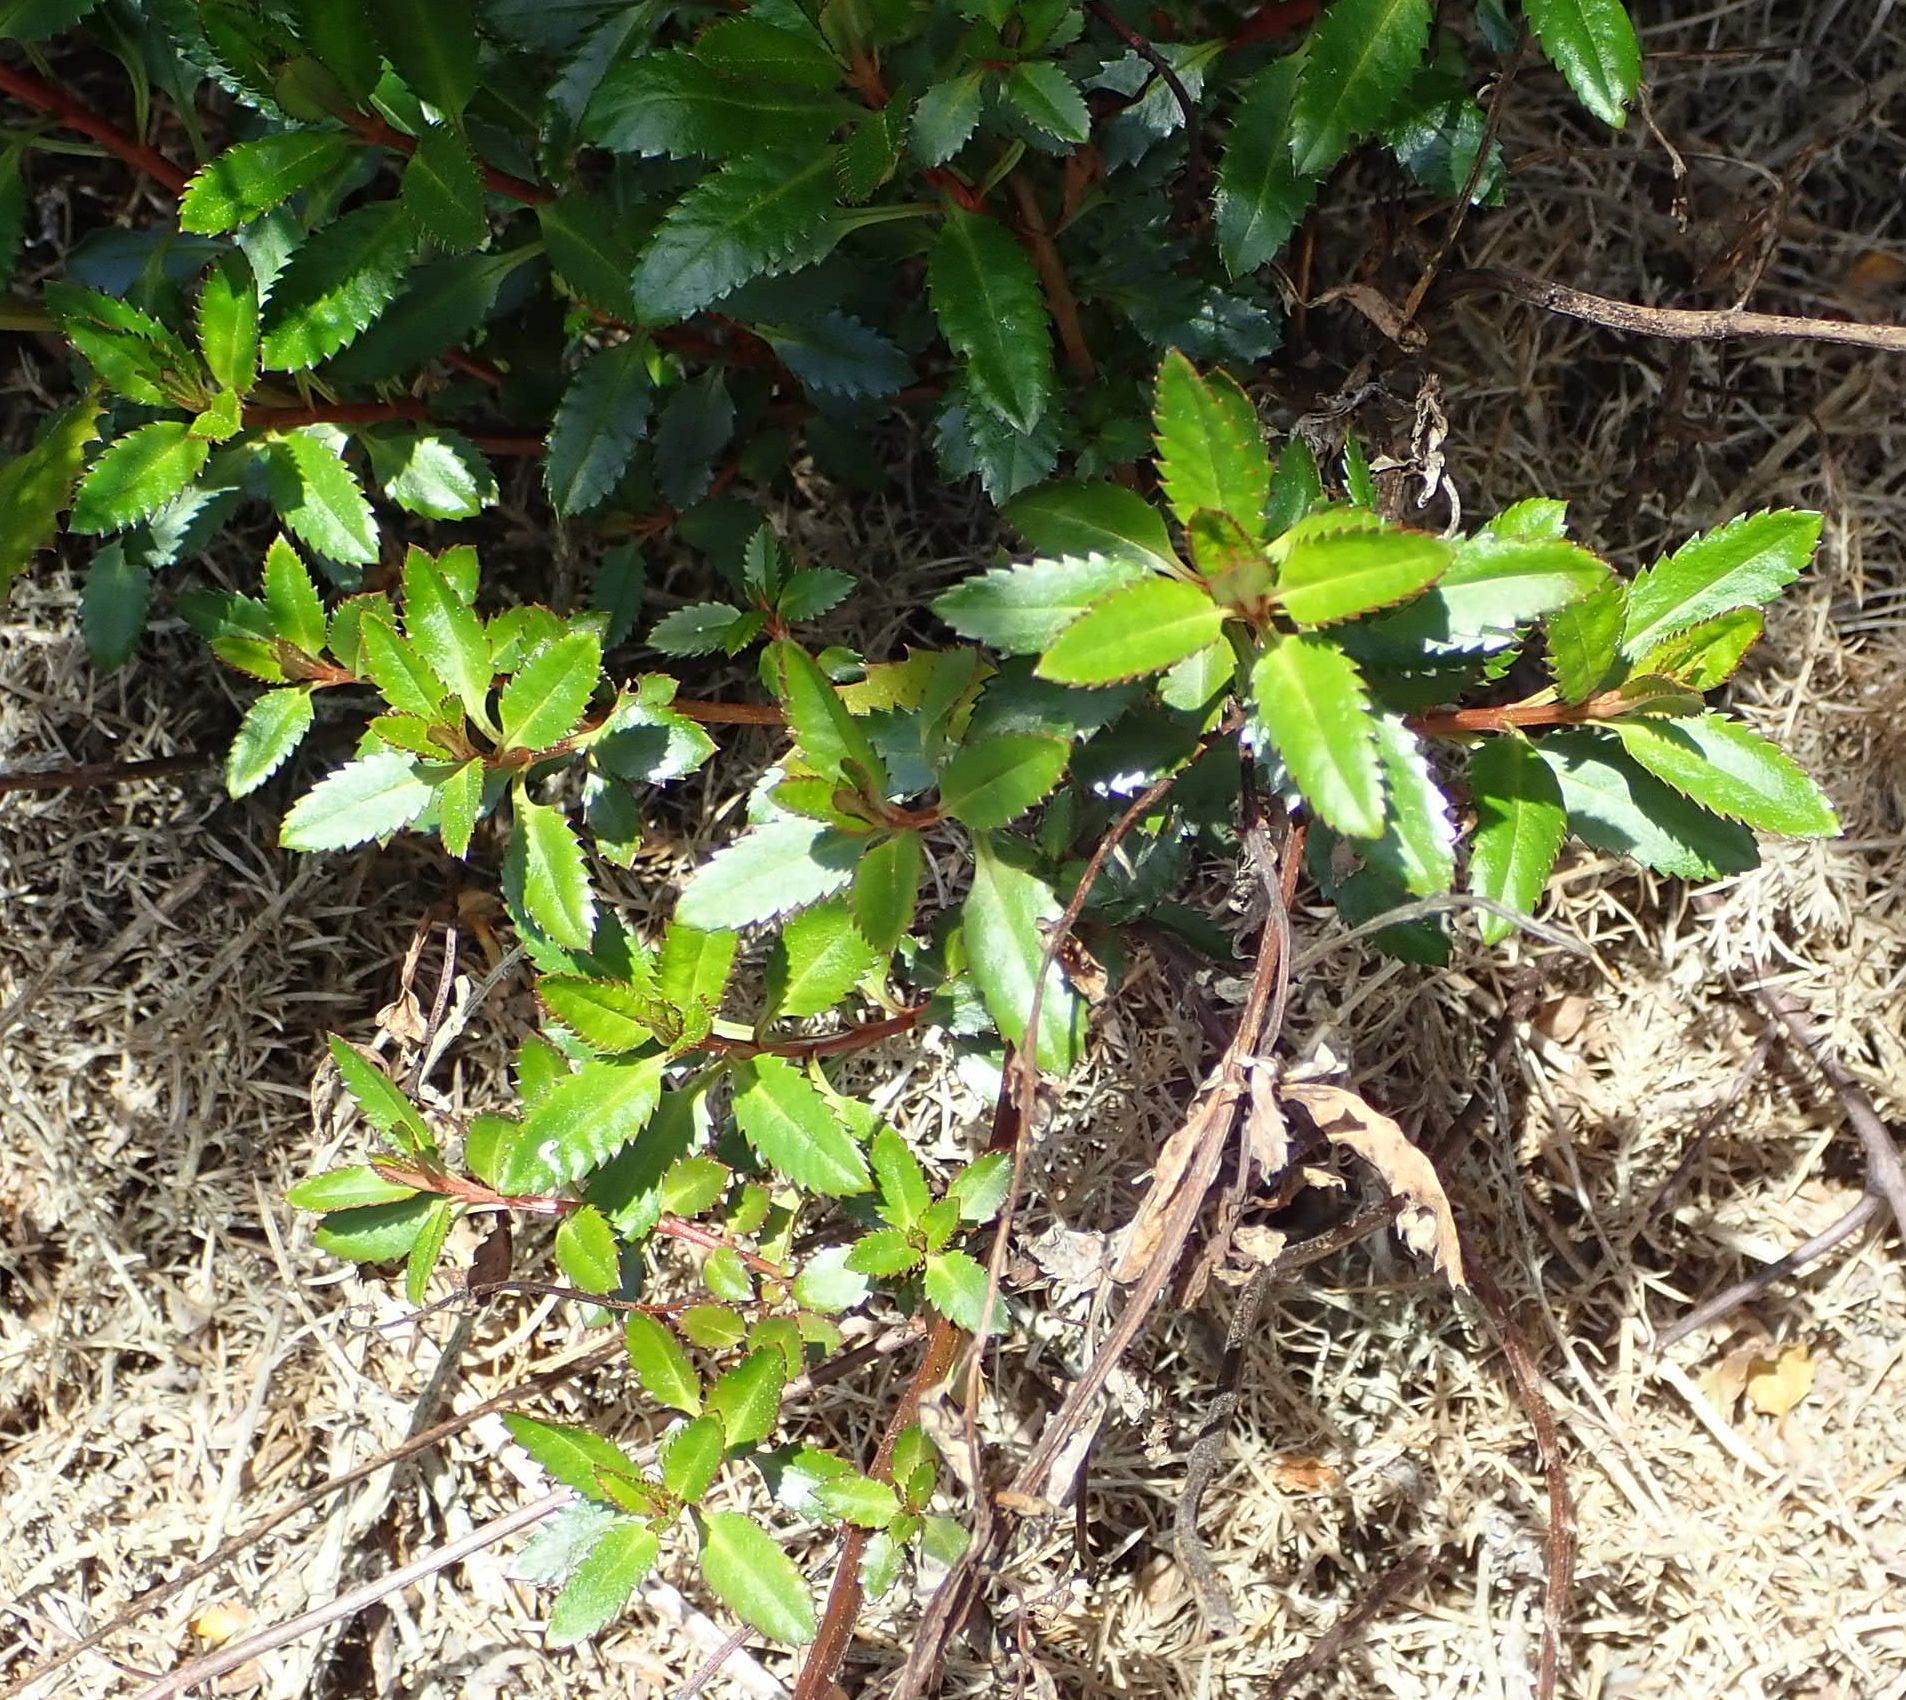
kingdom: Plantae
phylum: Tracheophyta
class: Magnoliopsida
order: Saxifragales
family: Haloragaceae
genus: Haloragis
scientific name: Haloragis erecta
